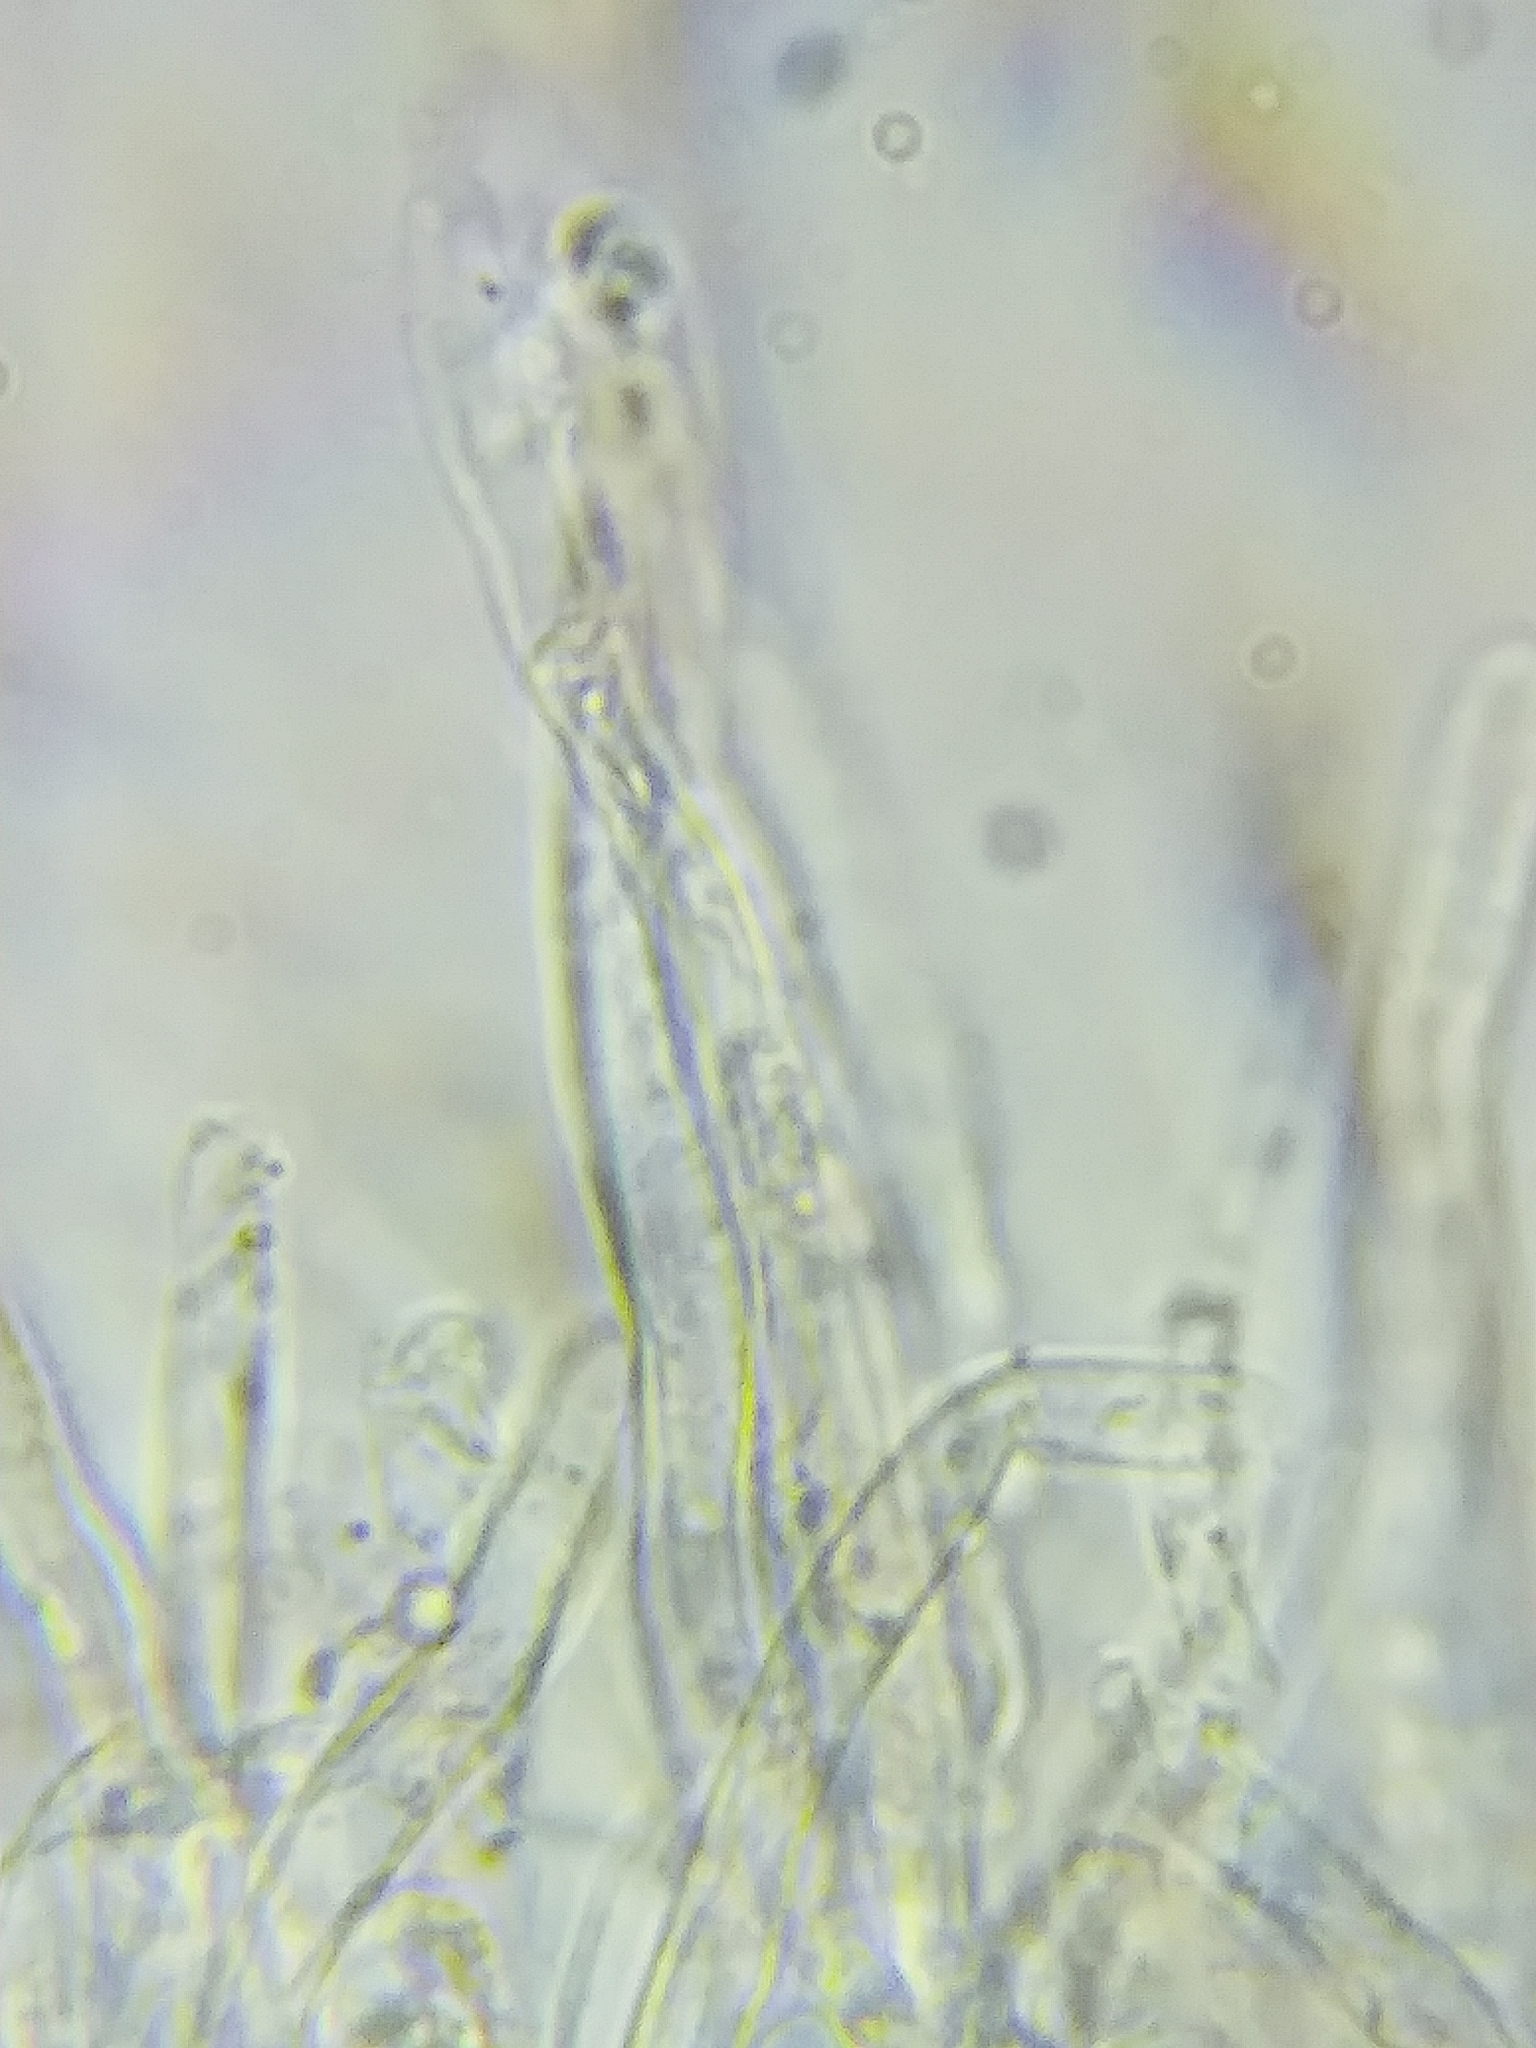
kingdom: Fungi
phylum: Basidiomycota
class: Agaricomycetes
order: Polyporales
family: Polyporaceae
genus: Poriella
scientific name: Poriella subacida
